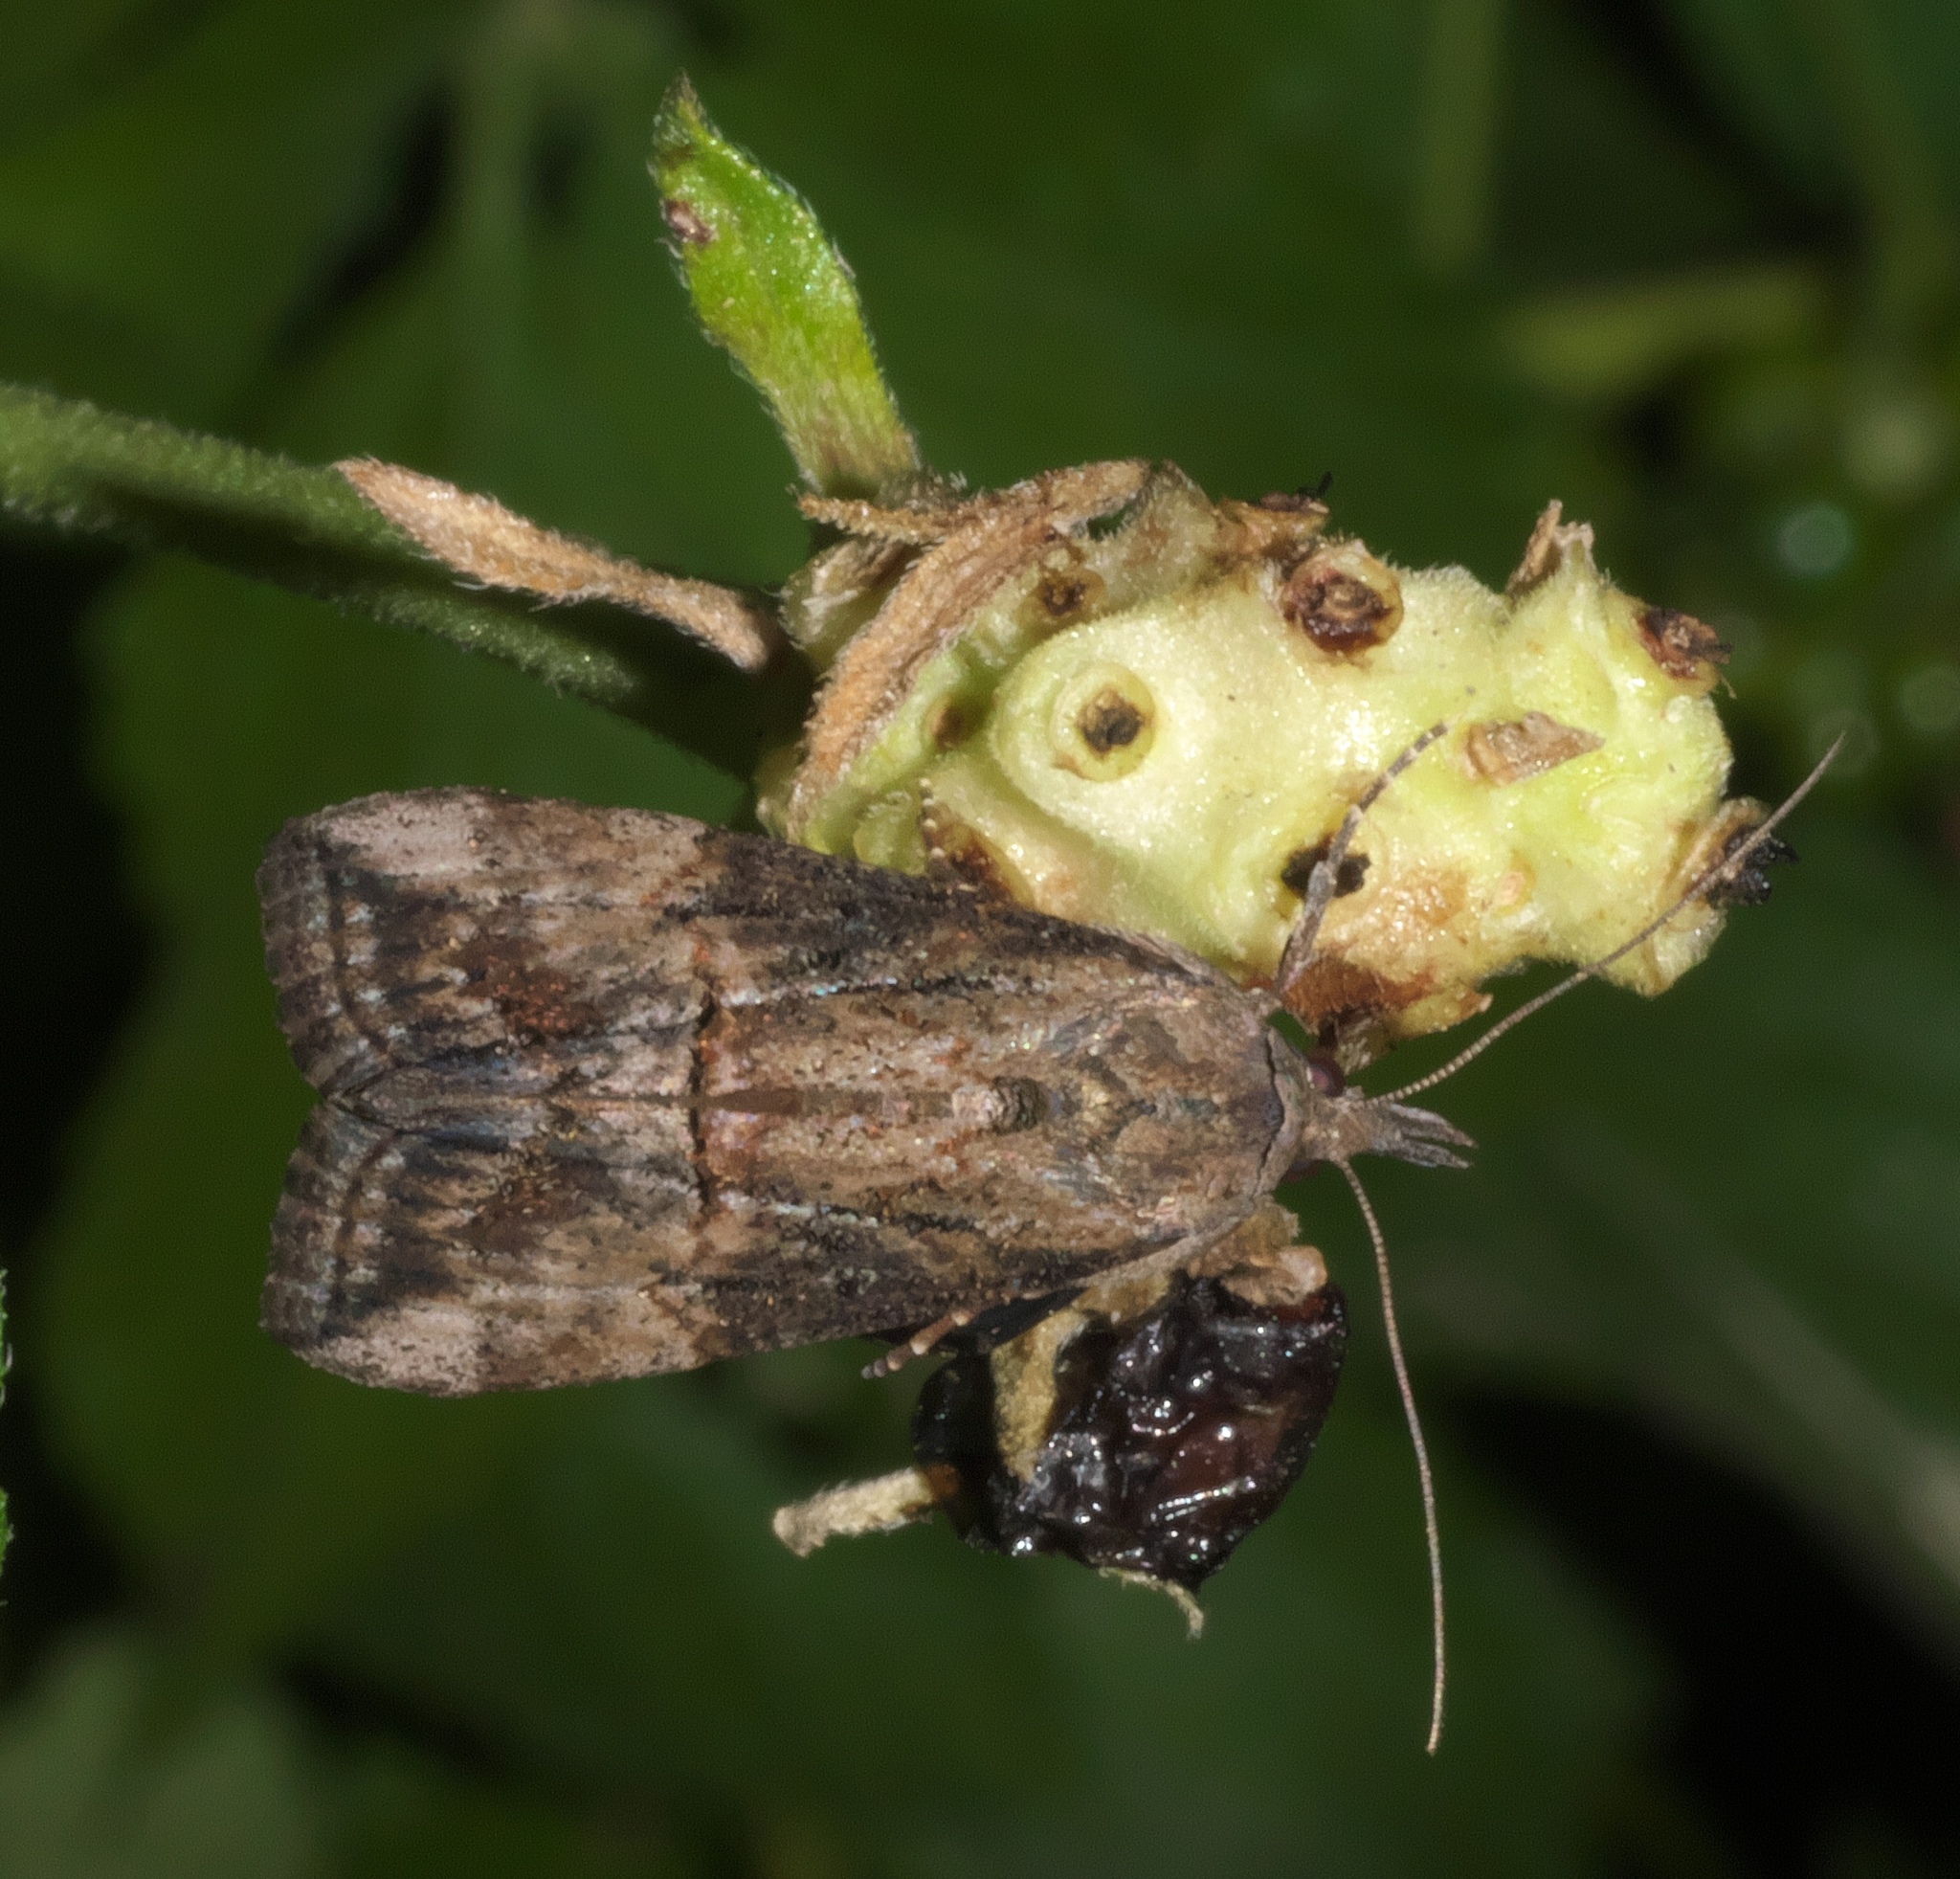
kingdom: Animalia
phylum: Arthropoda
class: Insecta
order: Lepidoptera
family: Erebidae
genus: Hypena
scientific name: Hypena scabra
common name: Green cloverworm
